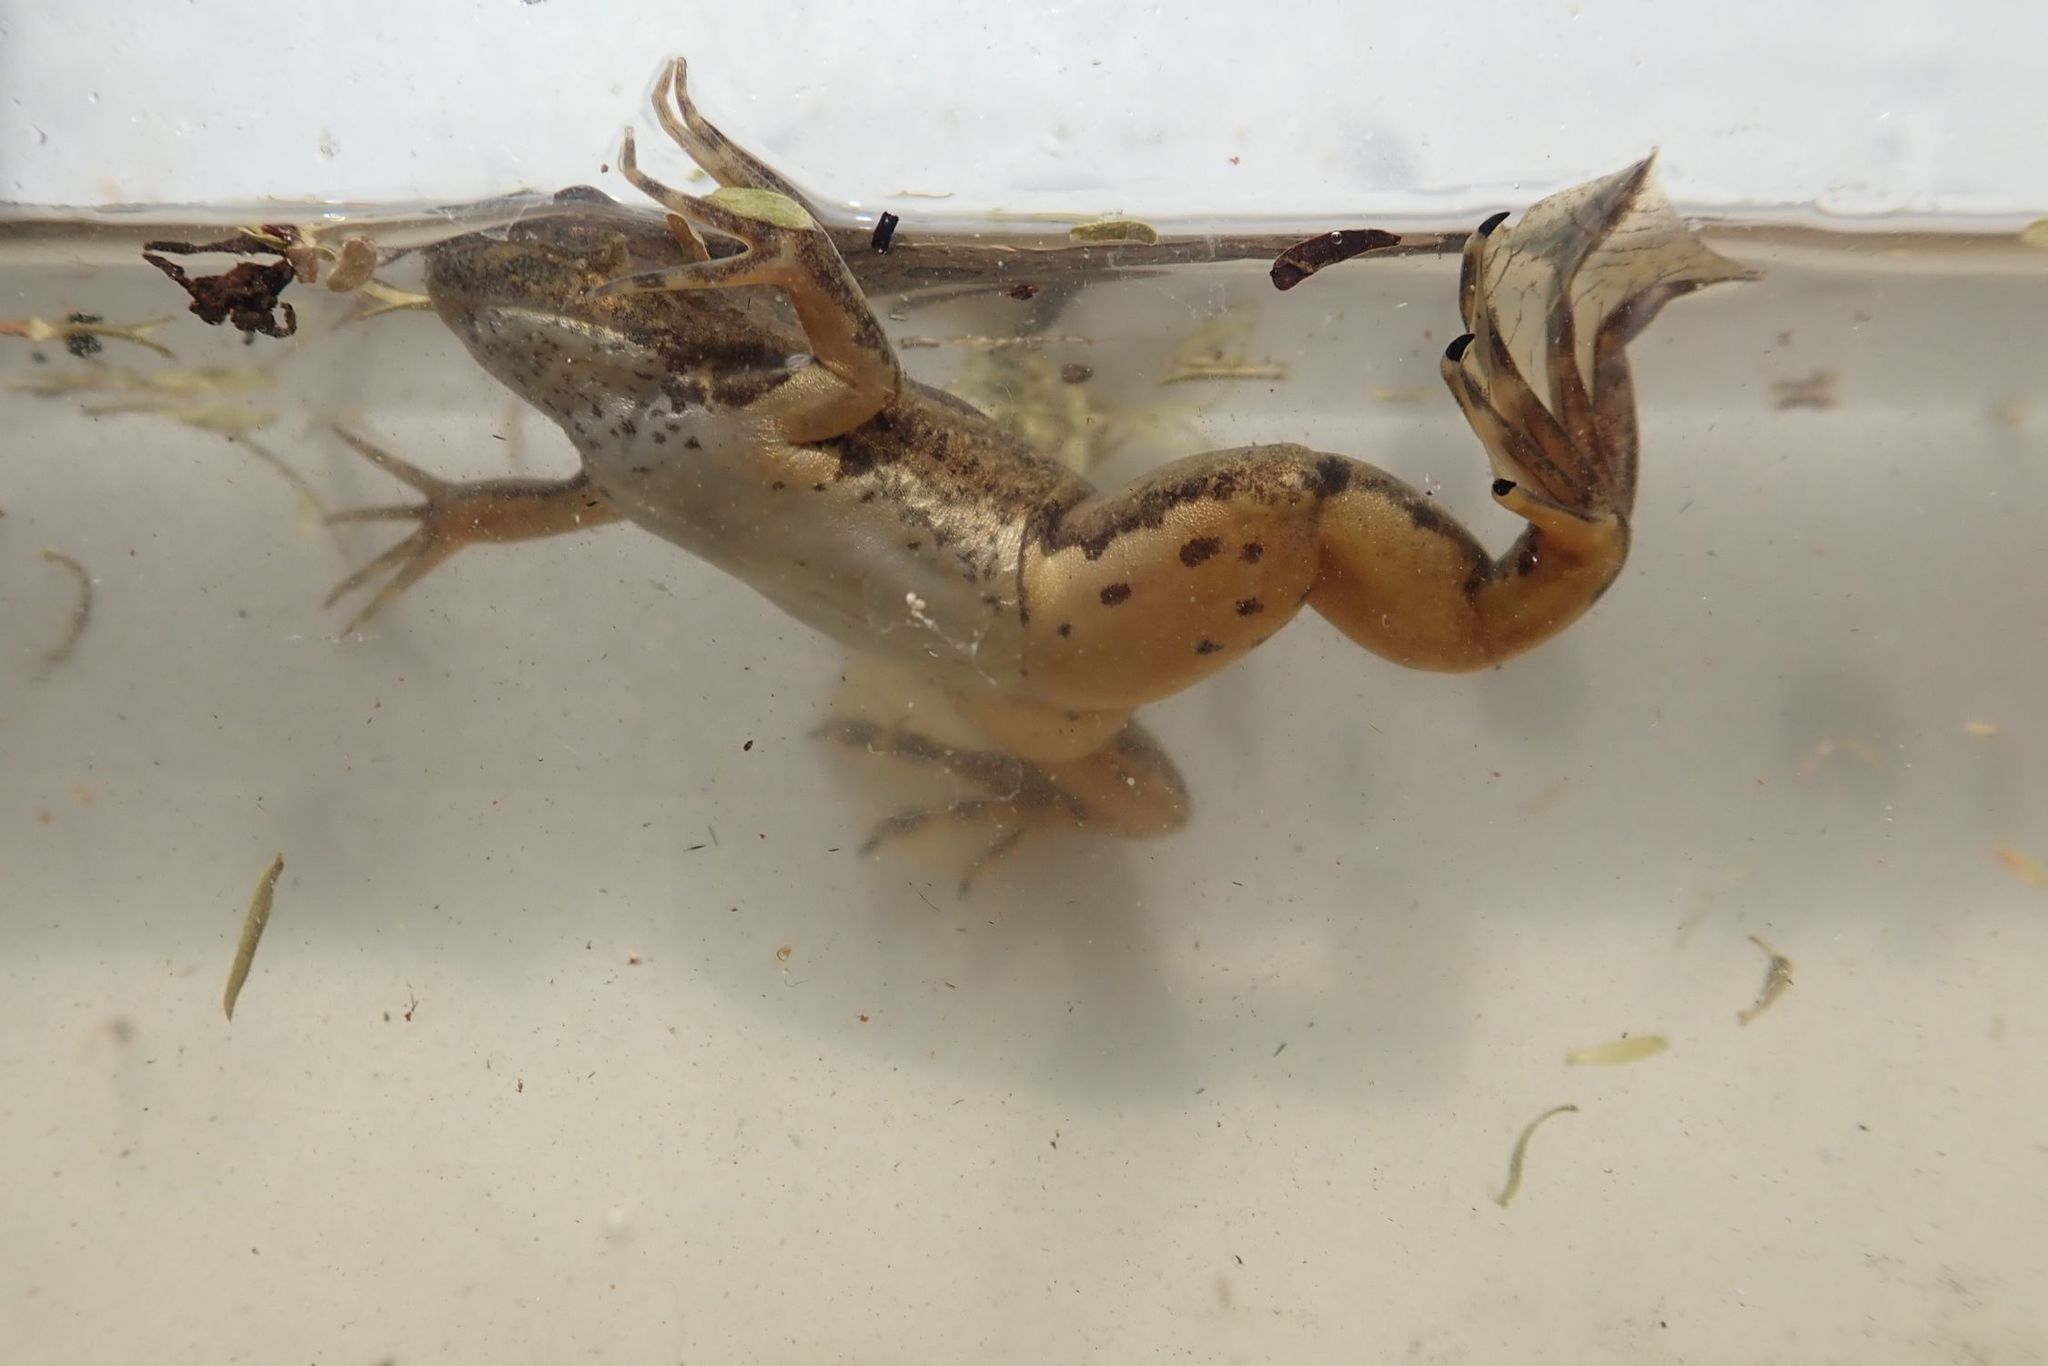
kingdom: Animalia
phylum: Chordata
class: Amphibia
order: Anura
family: Pipidae
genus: Xenopus
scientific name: Xenopus muelleri
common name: Muller's clawed frog
